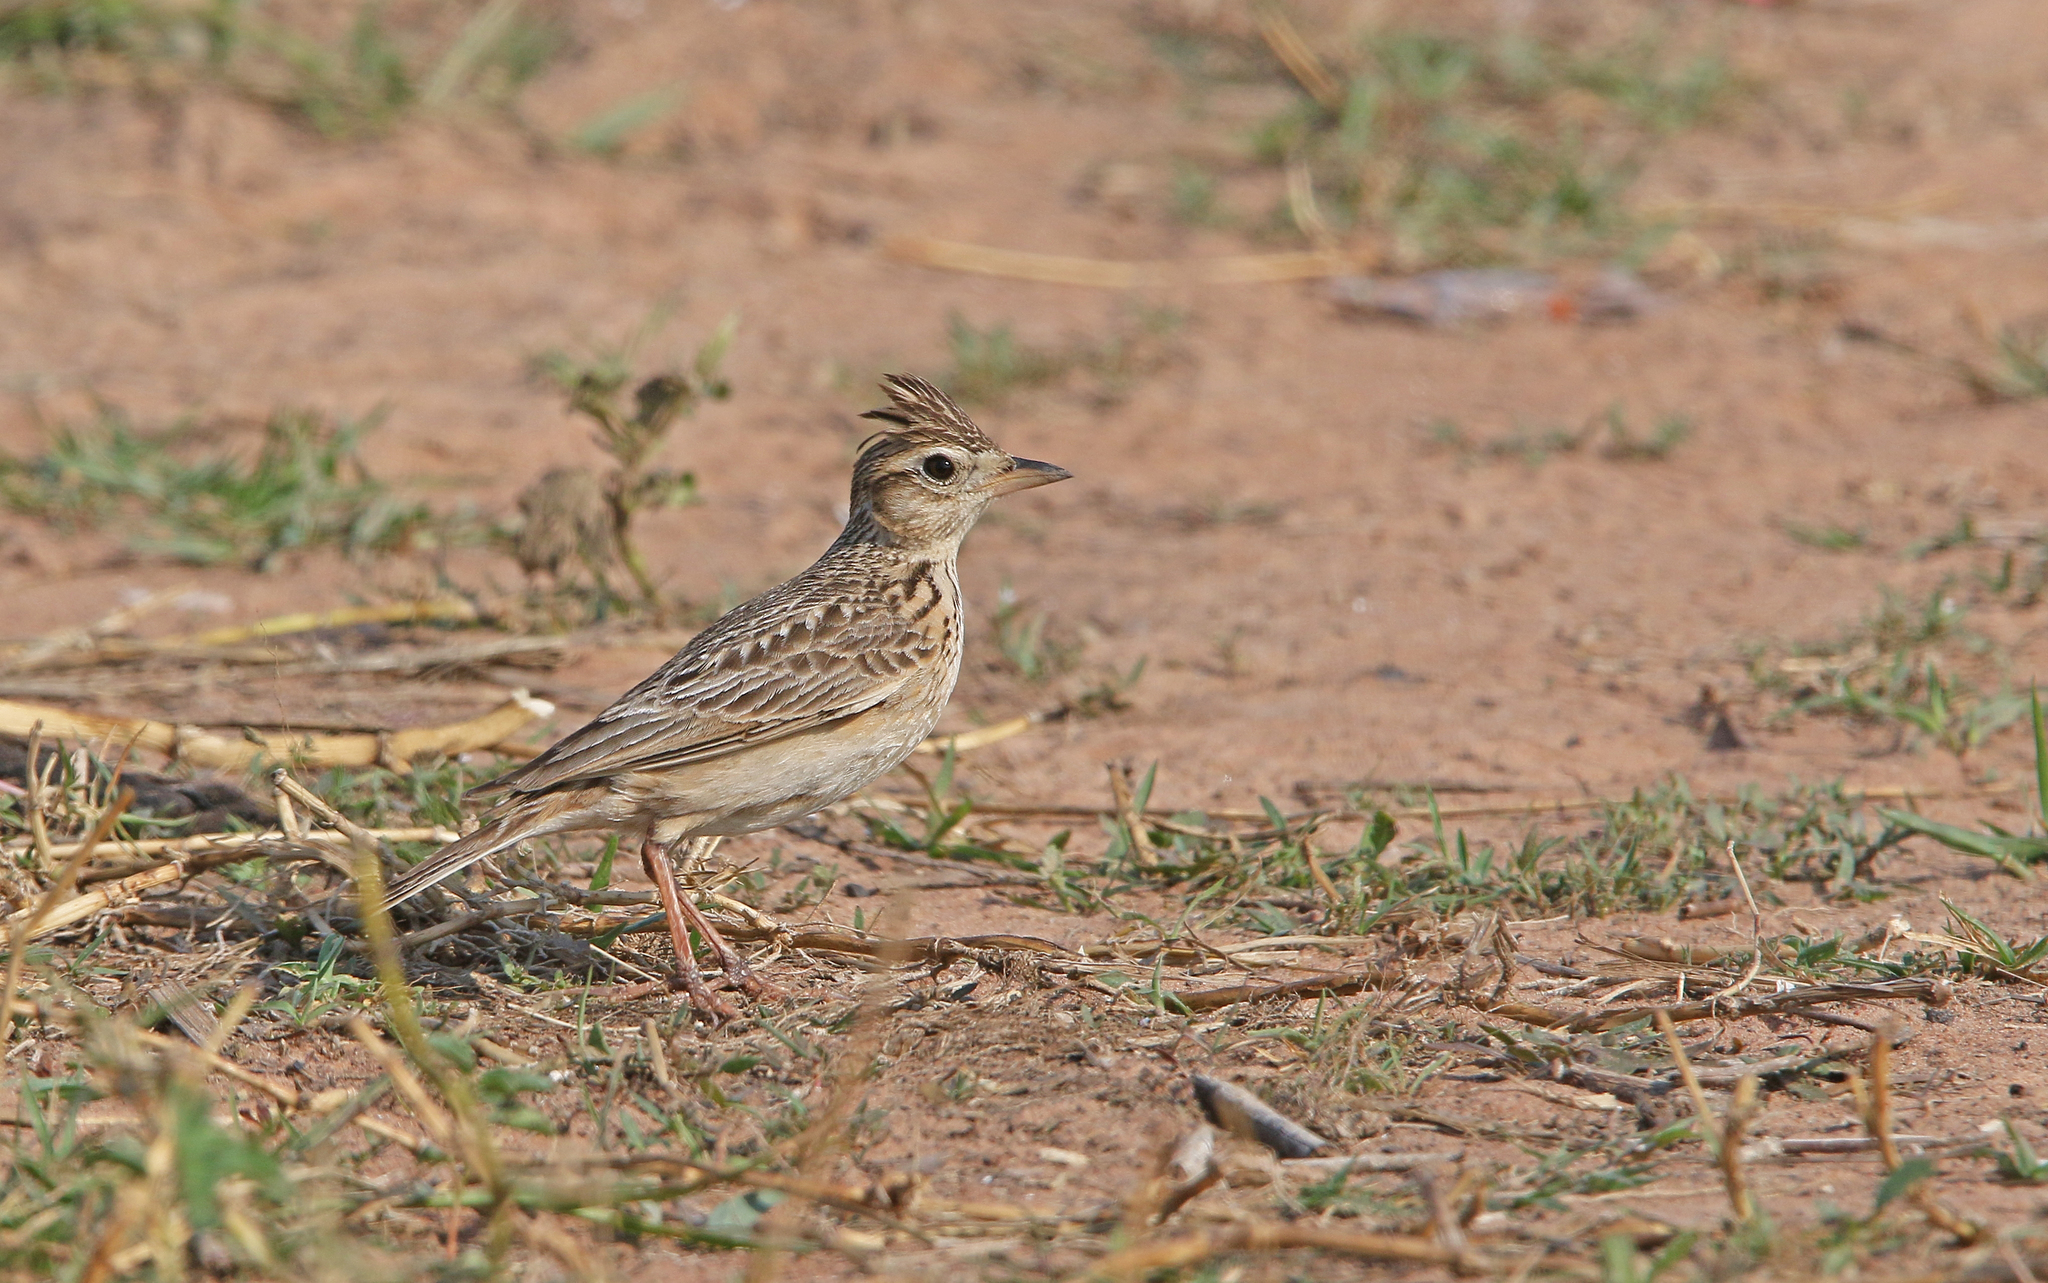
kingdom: Animalia
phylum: Chordata
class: Aves
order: Passeriformes
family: Alaudidae
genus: Alauda
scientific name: Alauda gulgula
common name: Oriental skylark
